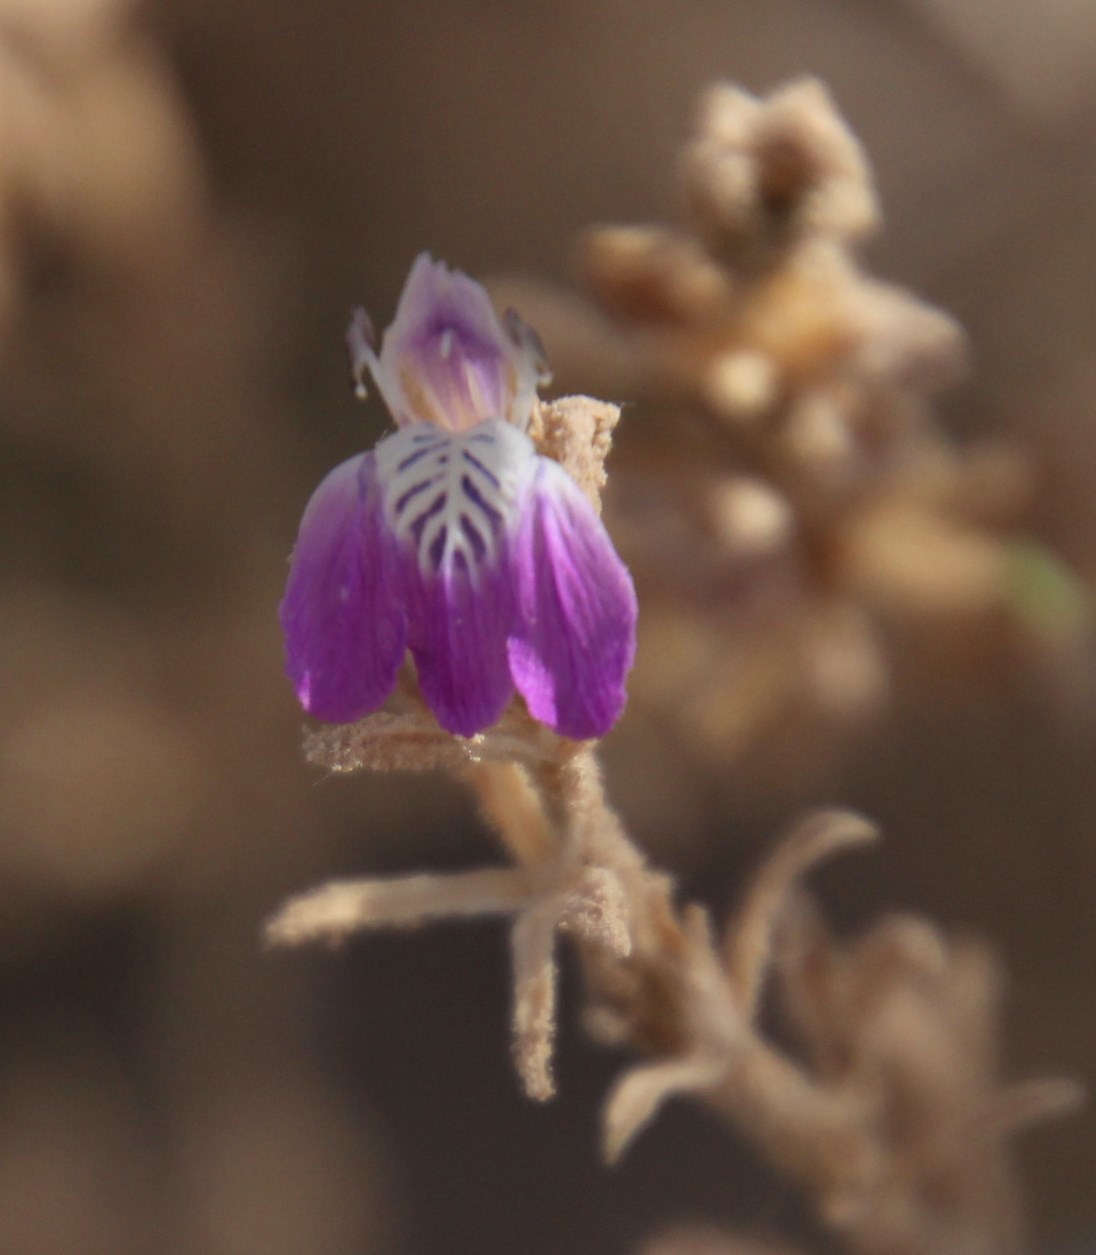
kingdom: Plantae
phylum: Tracheophyta
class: Magnoliopsida
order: Lamiales
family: Acanthaceae
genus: Pogonospermum
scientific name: Pogonospermum
